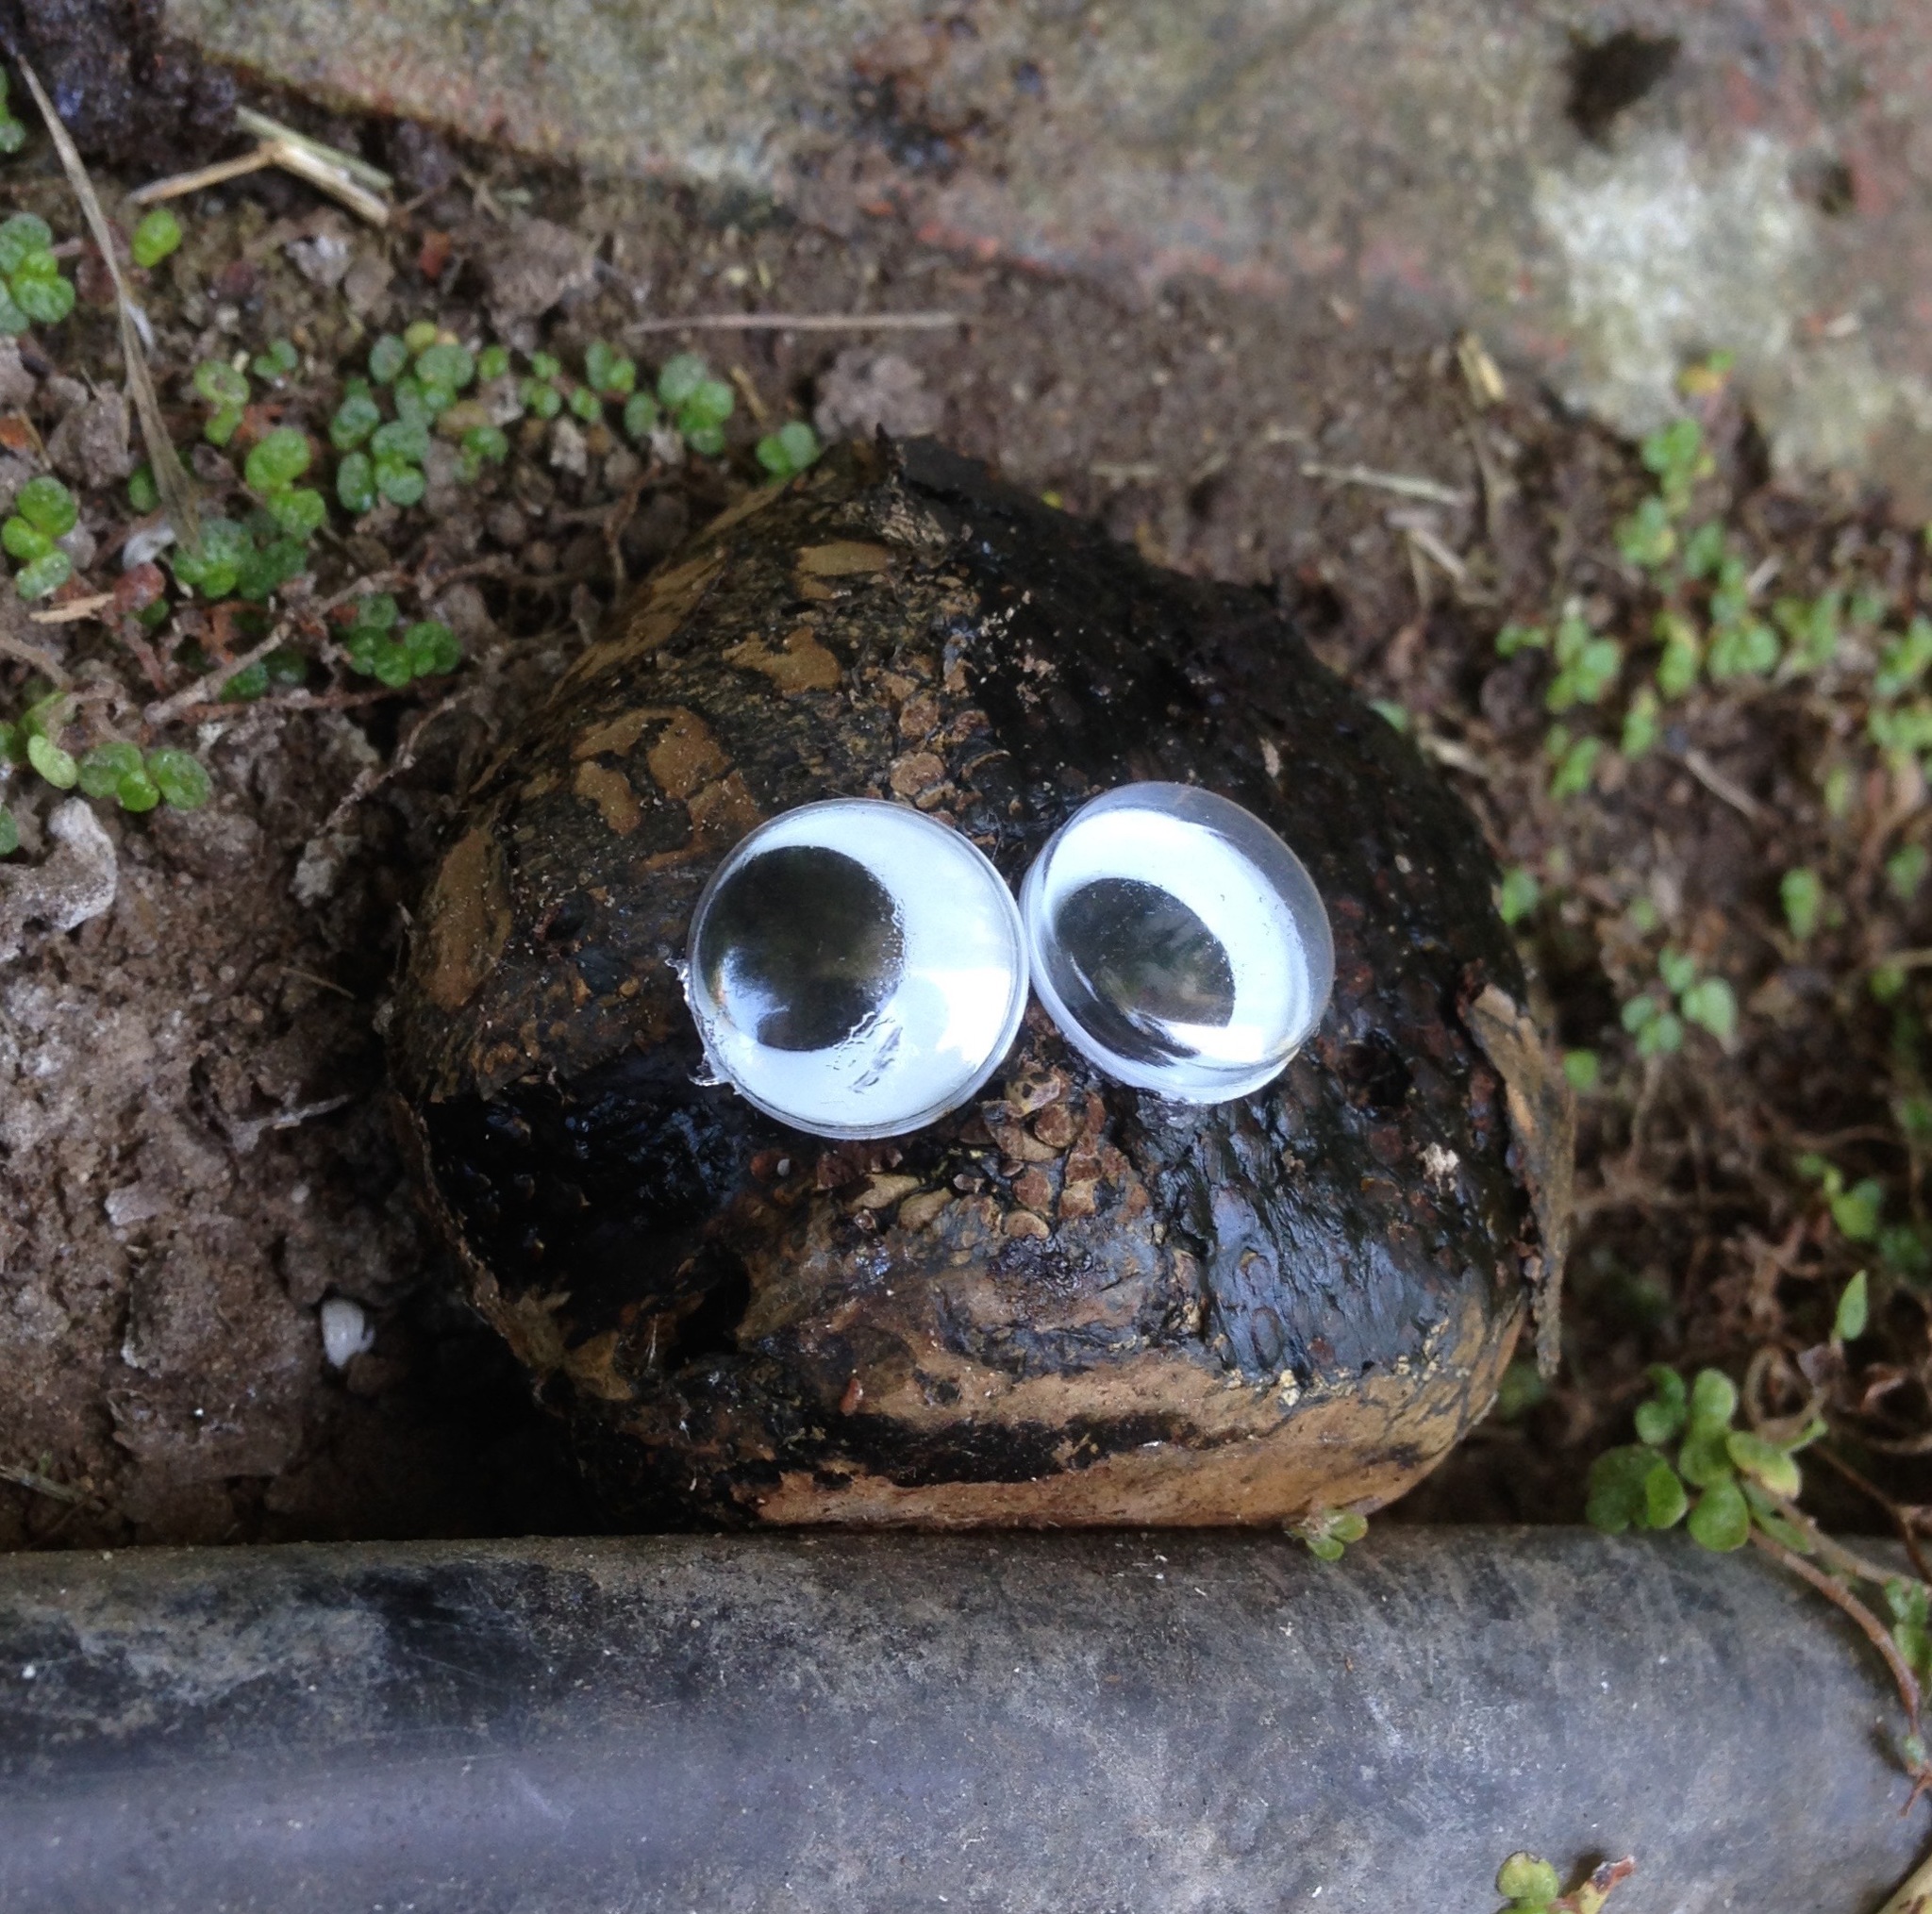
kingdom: Fungi
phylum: Basidiomycota
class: Agaricomycetes
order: Boletales
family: Sclerodermataceae
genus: Pisolithus
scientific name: Pisolithus tinctorius
